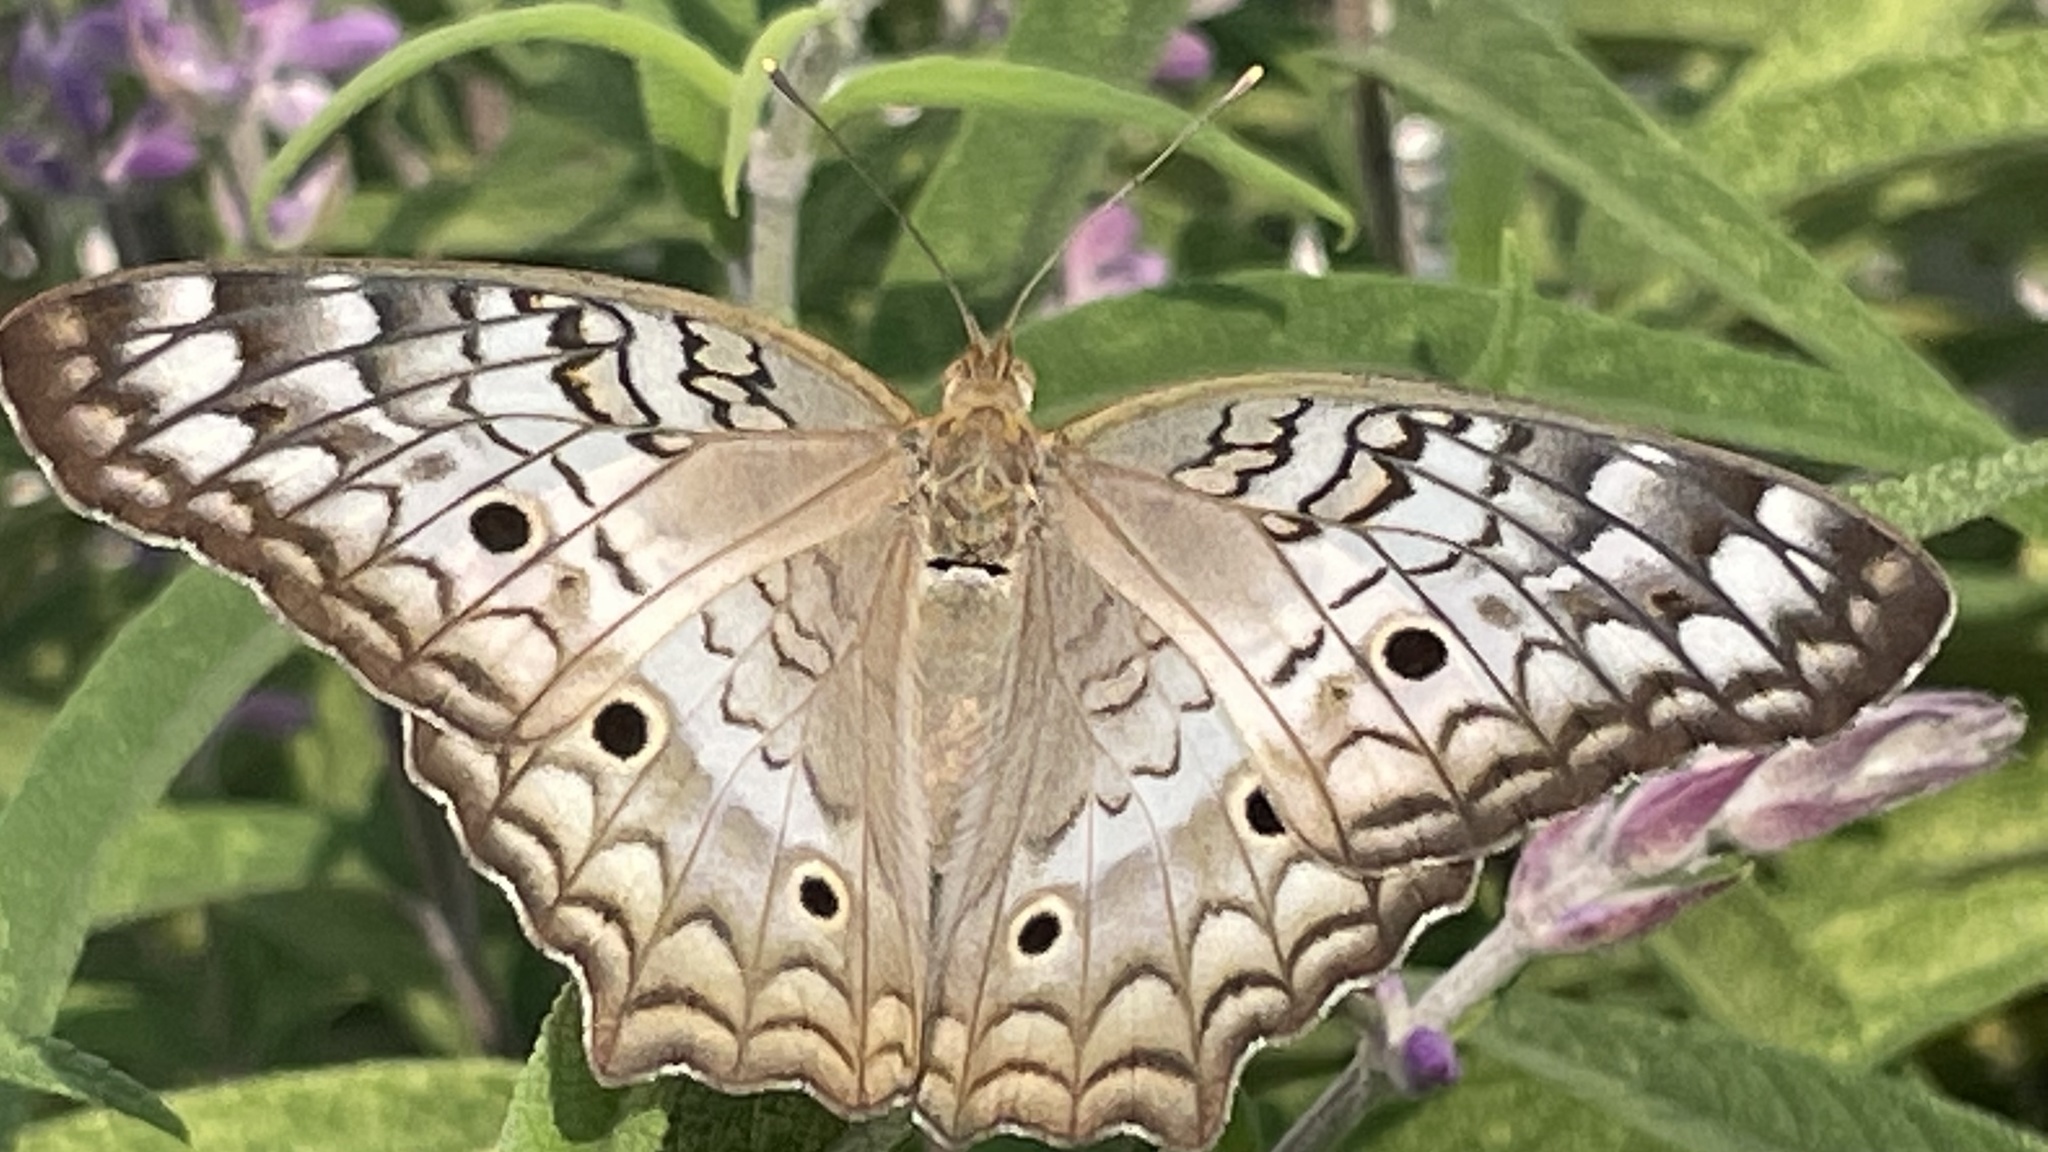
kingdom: Animalia
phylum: Arthropoda
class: Insecta
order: Lepidoptera
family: Nymphalidae
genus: Anartia
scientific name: Anartia jatrophae
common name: White peacock
